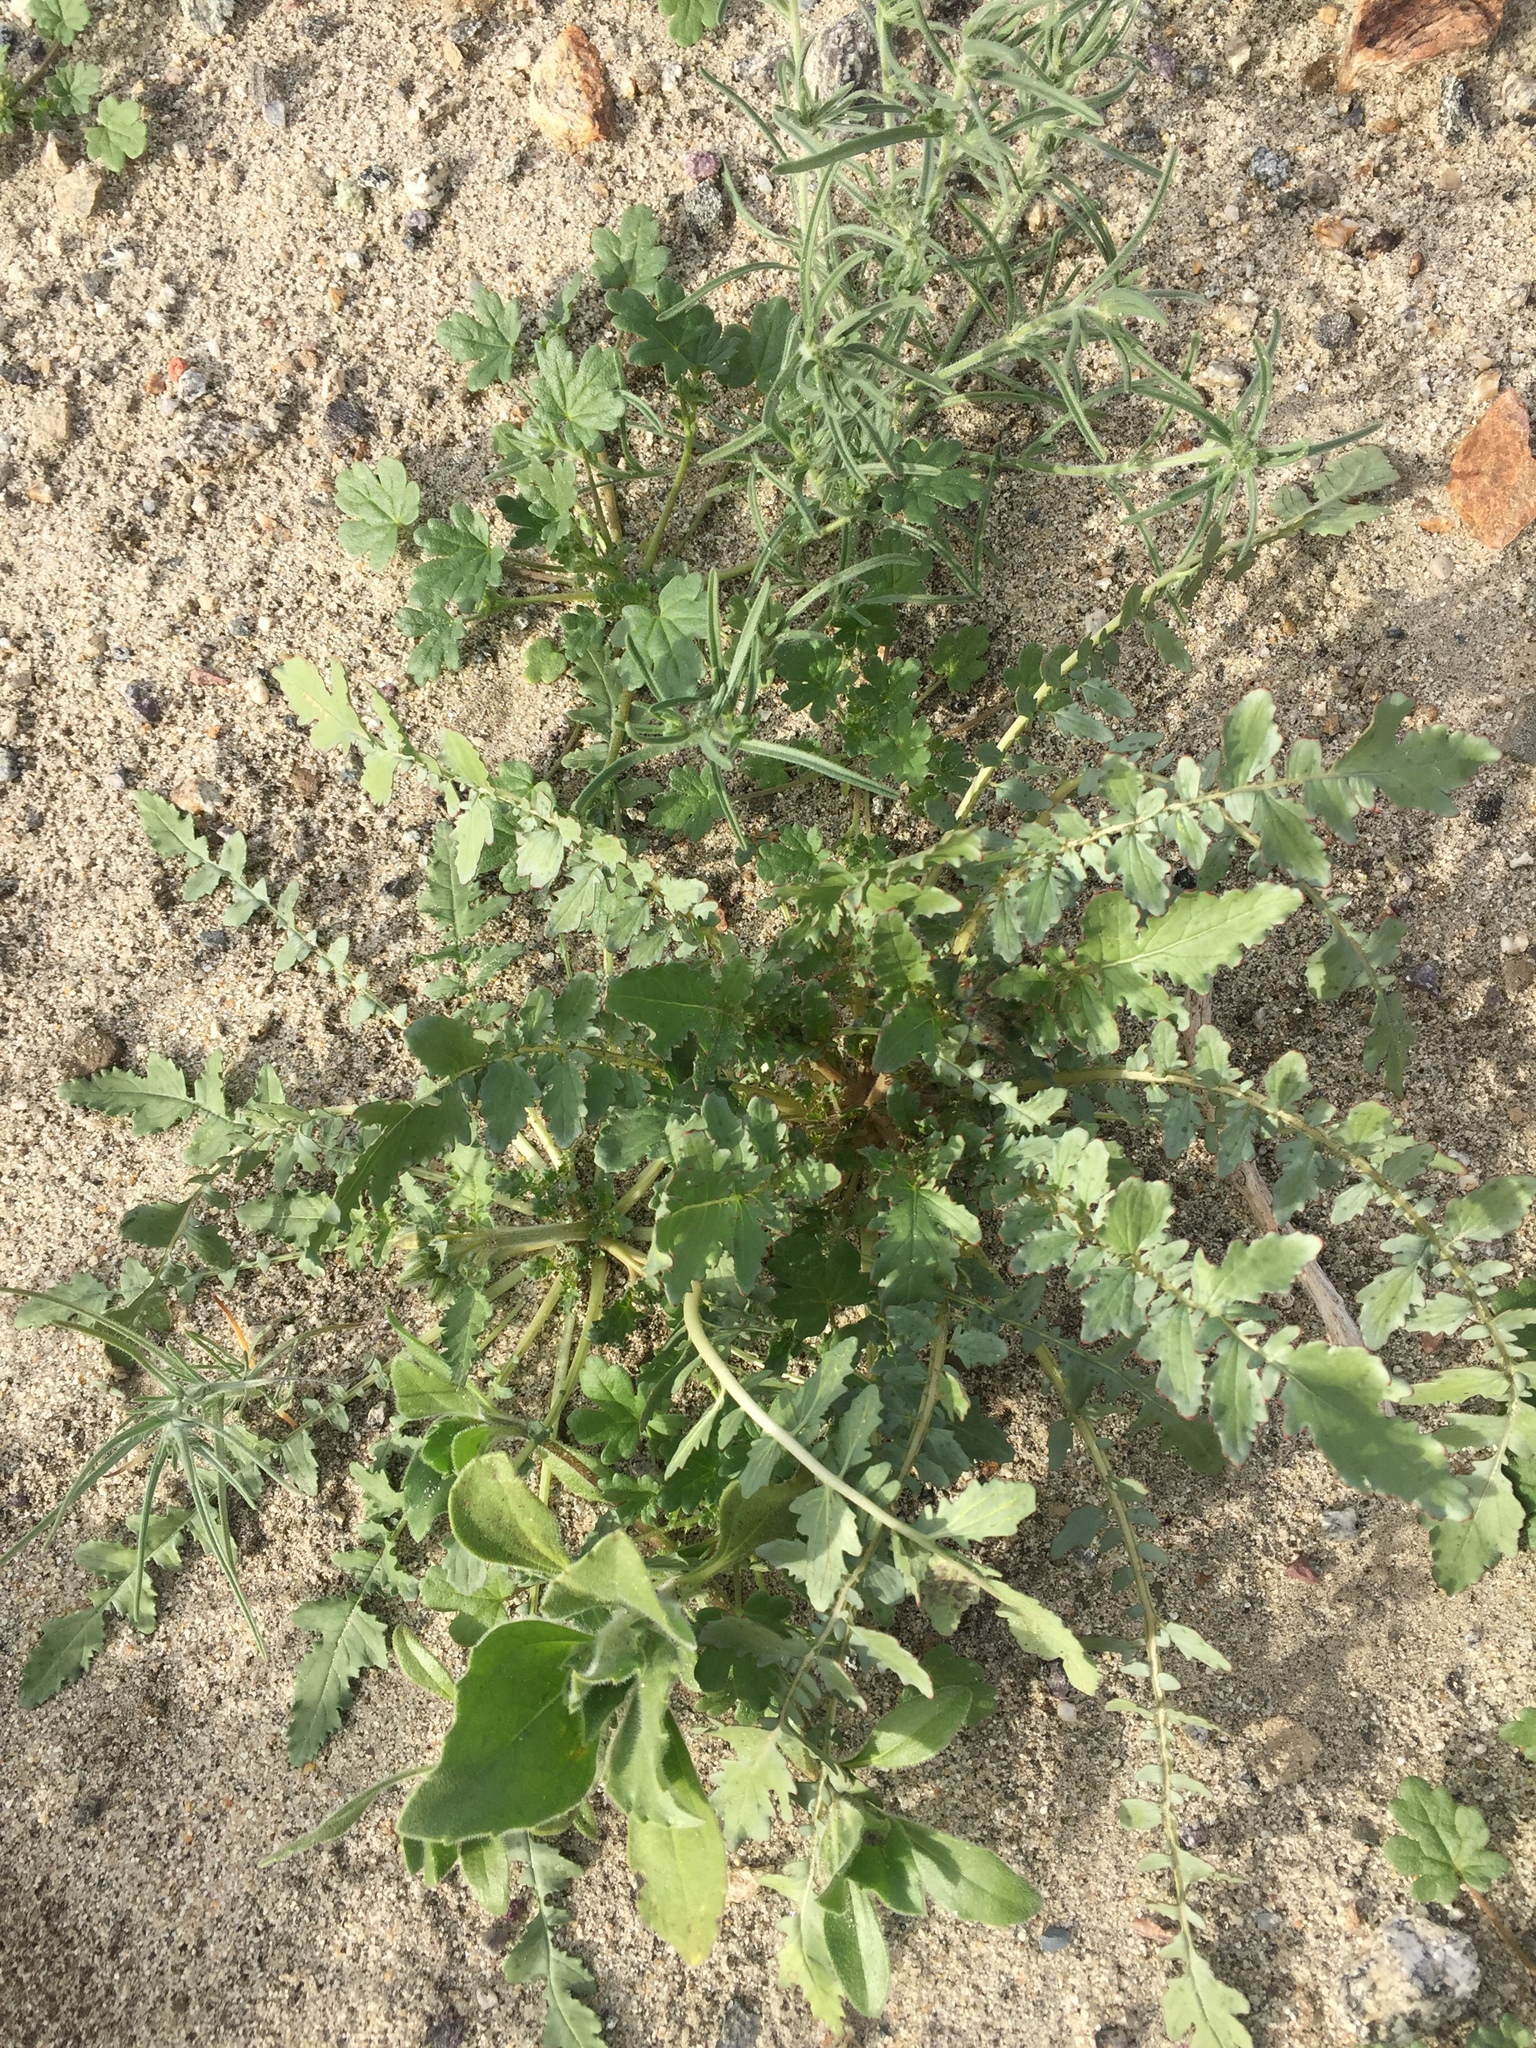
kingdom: Plantae
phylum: Tracheophyta
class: Magnoliopsida
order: Myrtales
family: Onagraceae
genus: Chylismia
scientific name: Chylismia claviformis
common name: Browneyes
